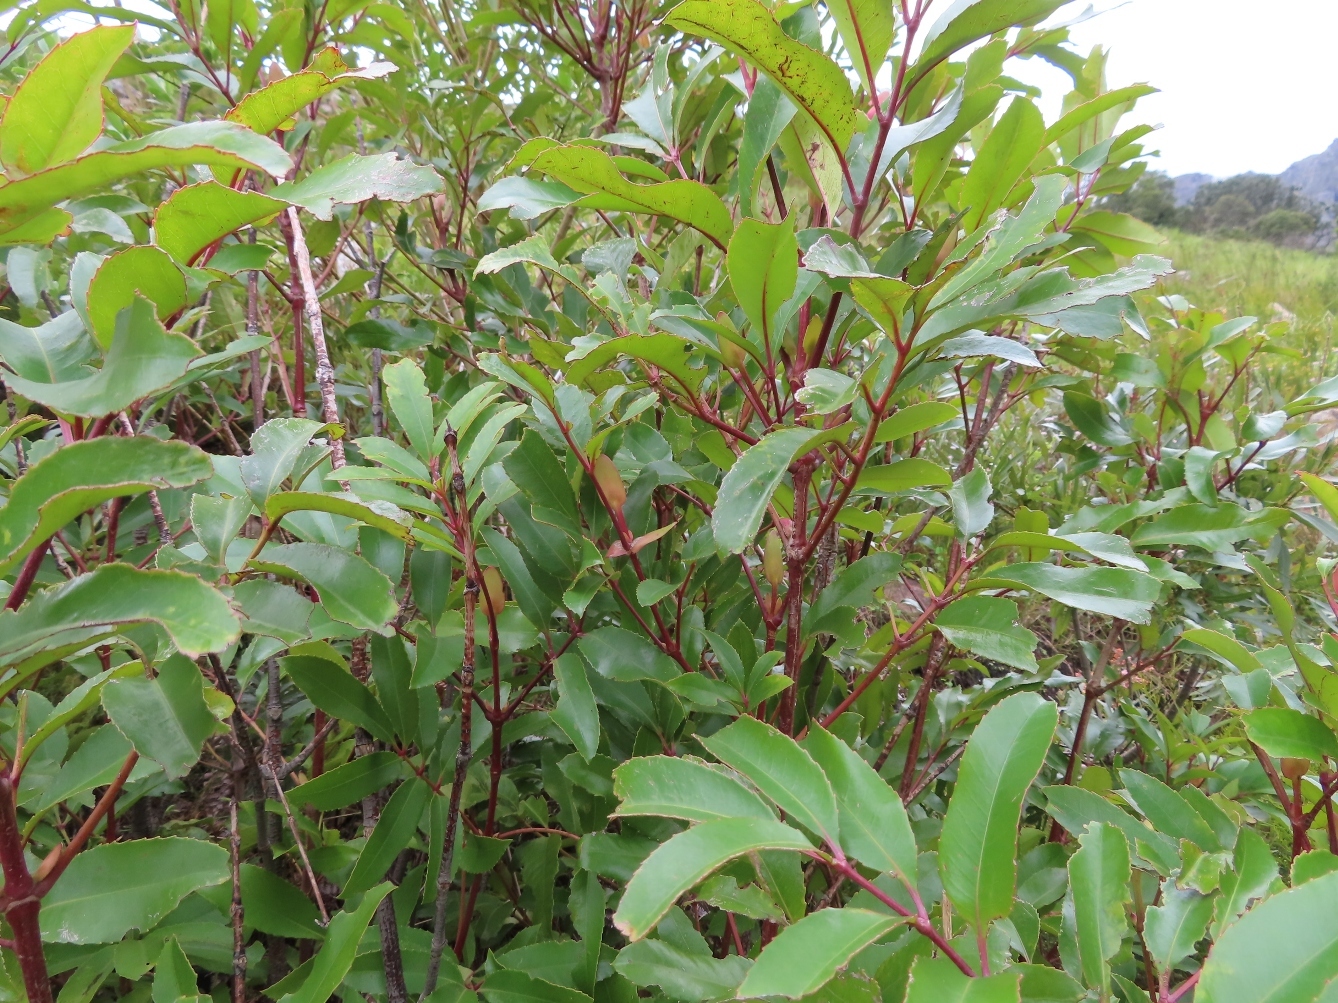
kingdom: Plantae
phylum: Tracheophyta
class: Magnoliopsida
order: Oxalidales
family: Cunoniaceae
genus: Cunonia
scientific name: Cunonia capensis
